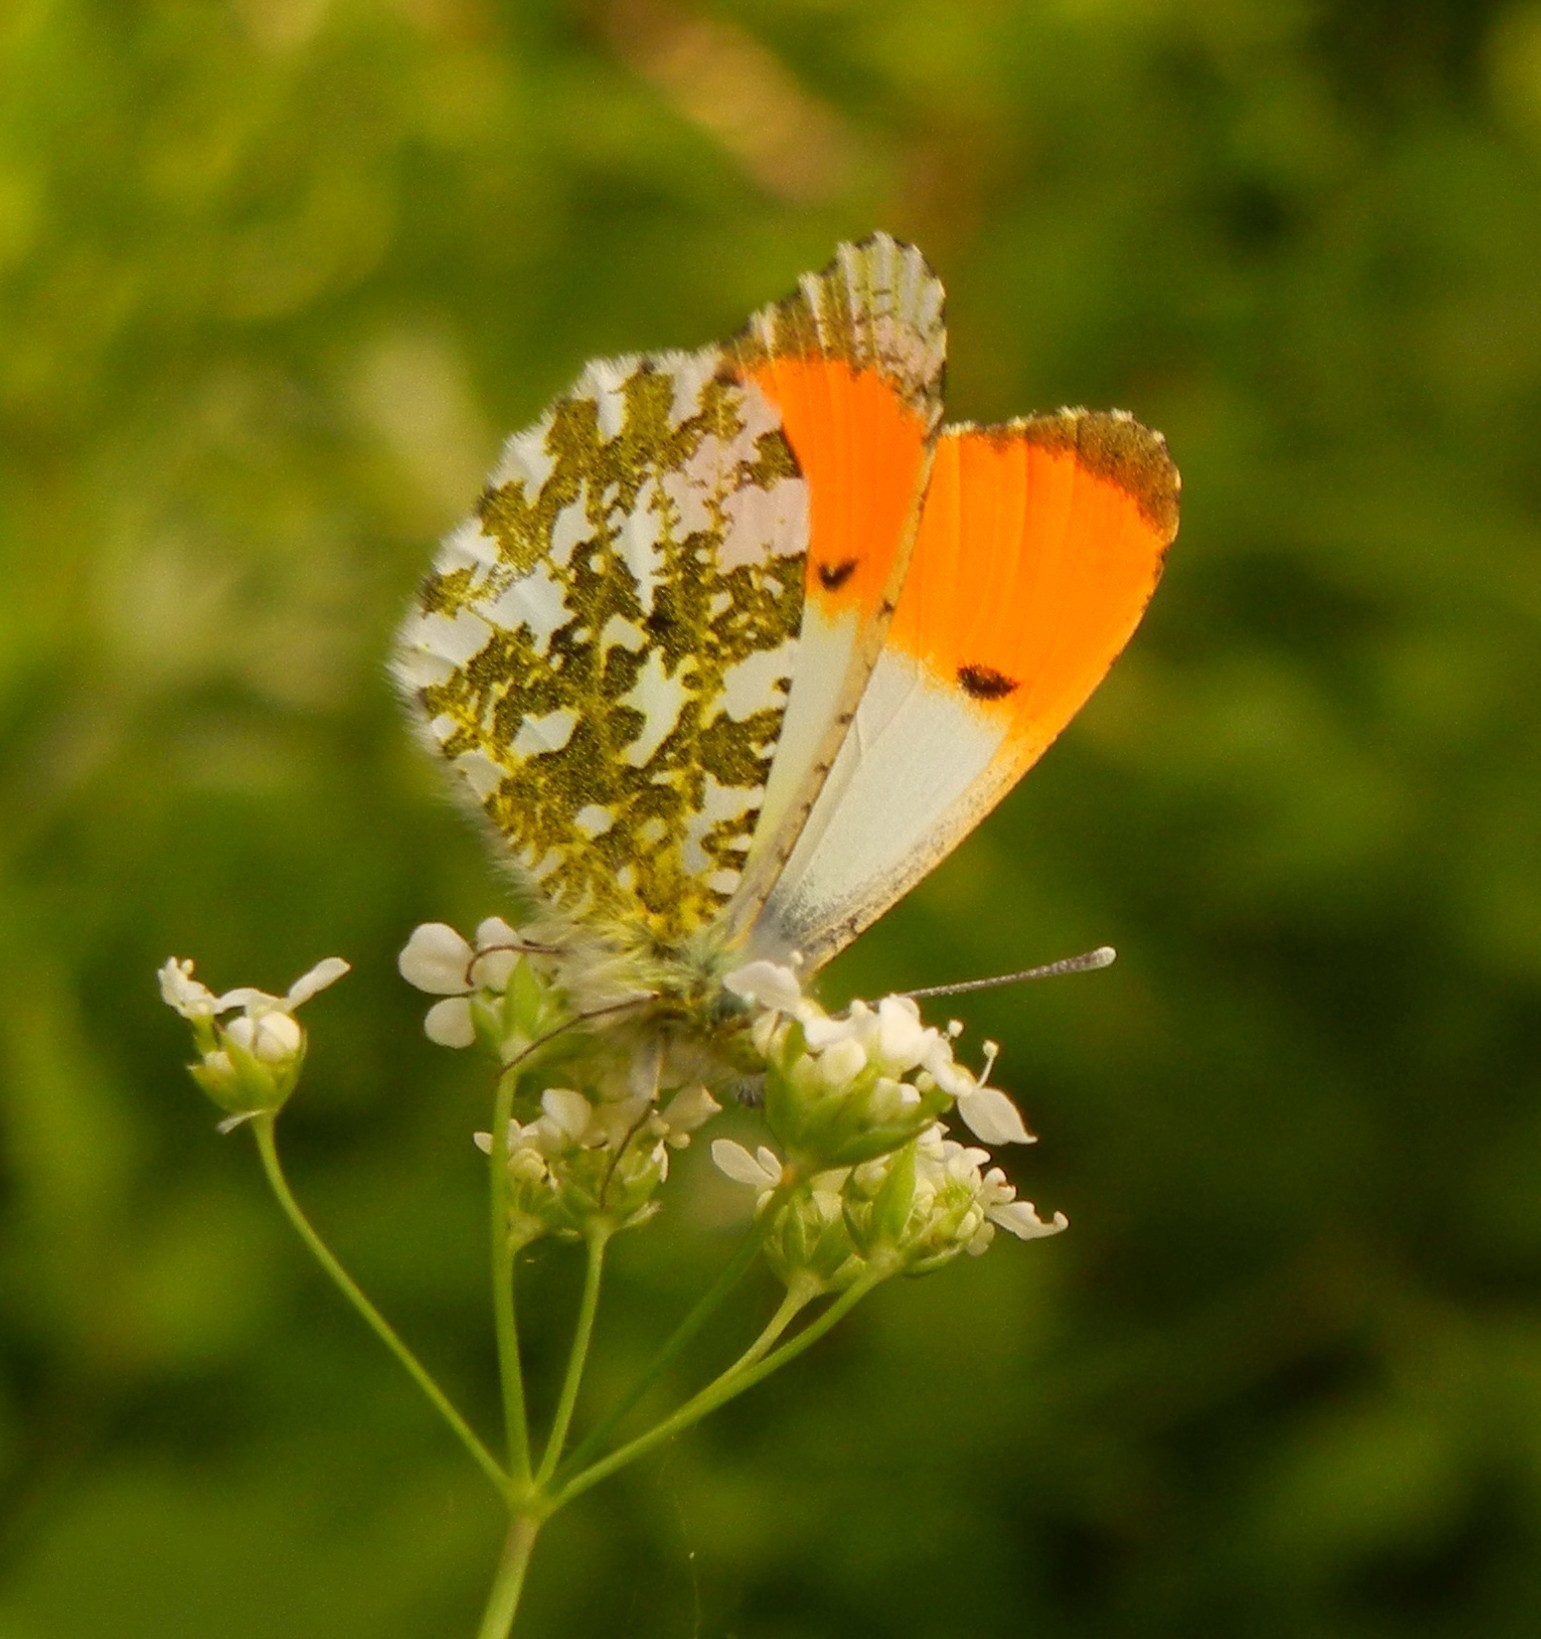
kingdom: Animalia
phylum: Arthropoda
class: Insecta
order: Lepidoptera
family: Pieridae
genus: Anthocharis
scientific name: Anthocharis cardamines
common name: Orange-tip
